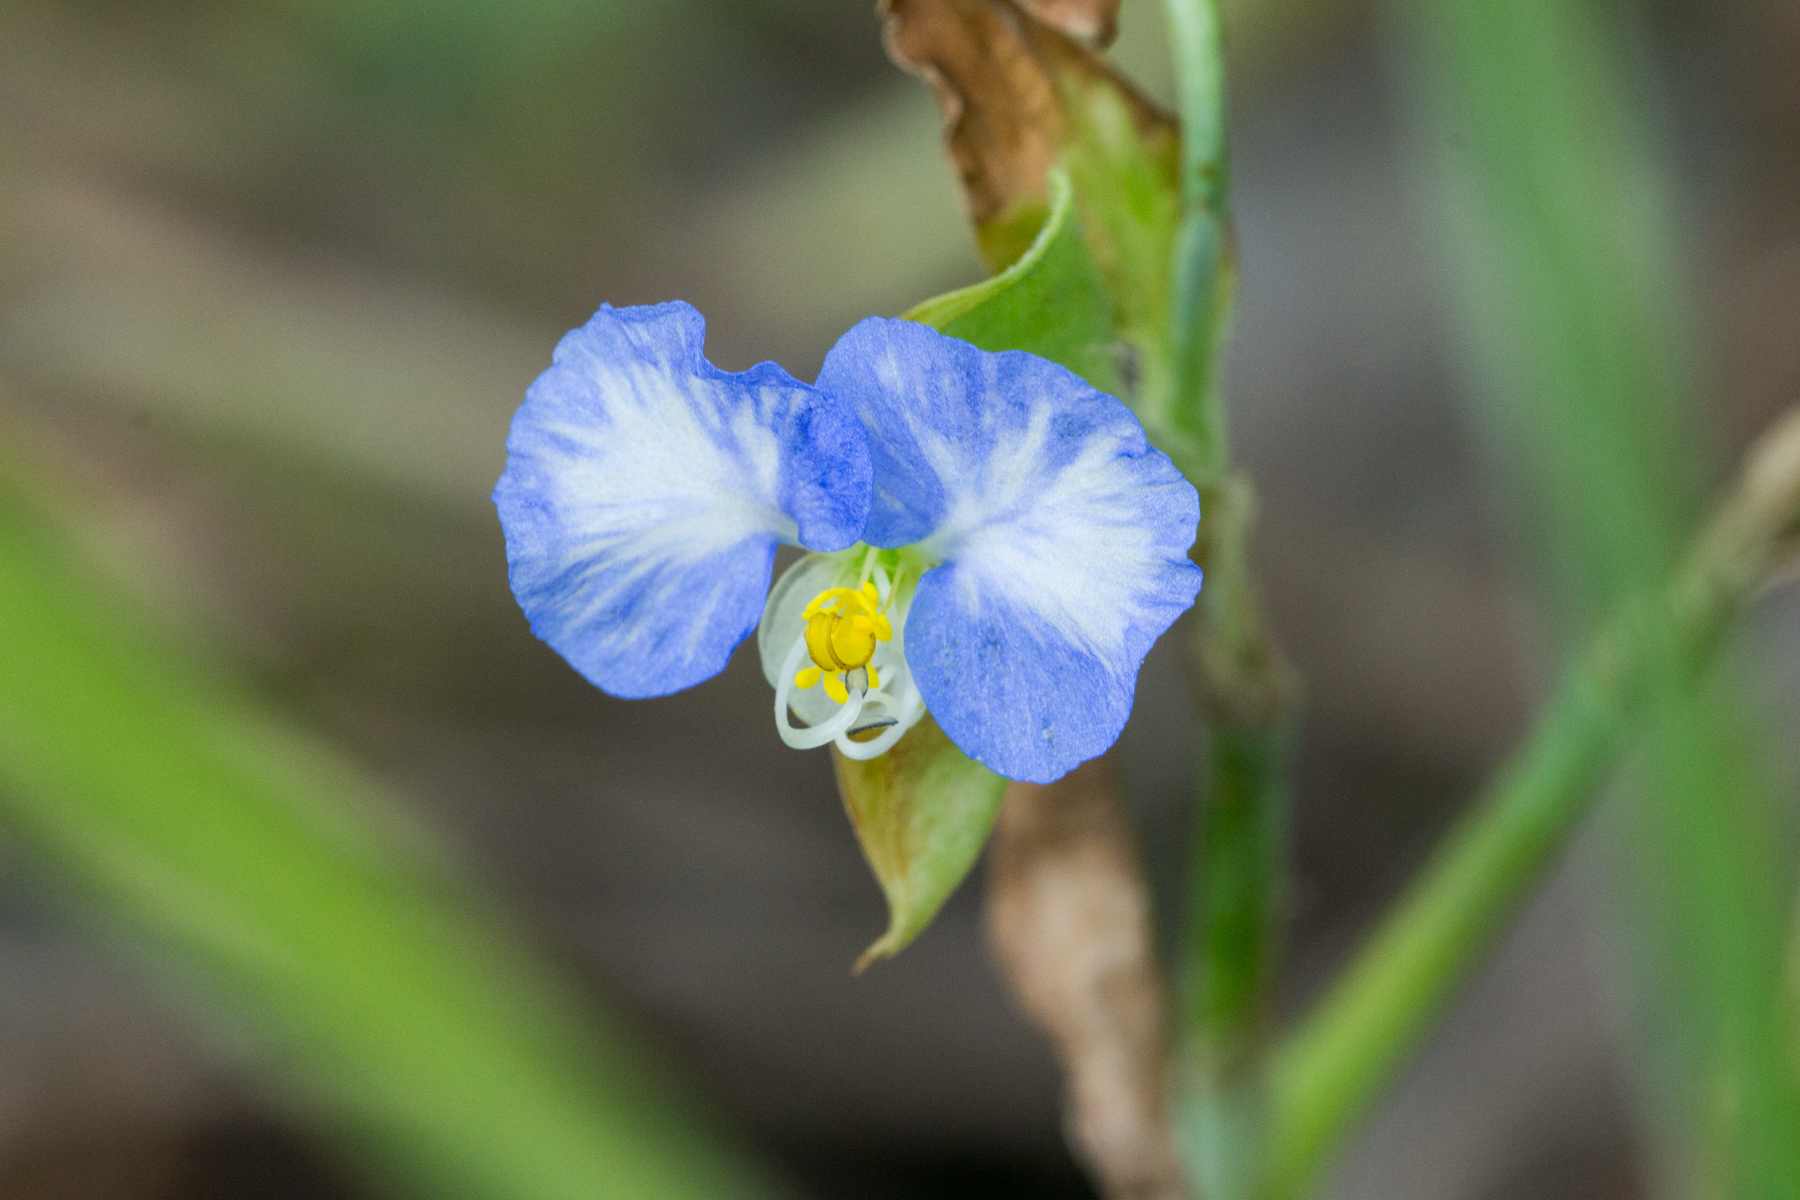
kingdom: Plantae
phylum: Tracheophyta
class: Liliopsida
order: Commelinales
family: Commelinaceae
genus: Commelina
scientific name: Commelina erecta
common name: Blousel blommetjie
